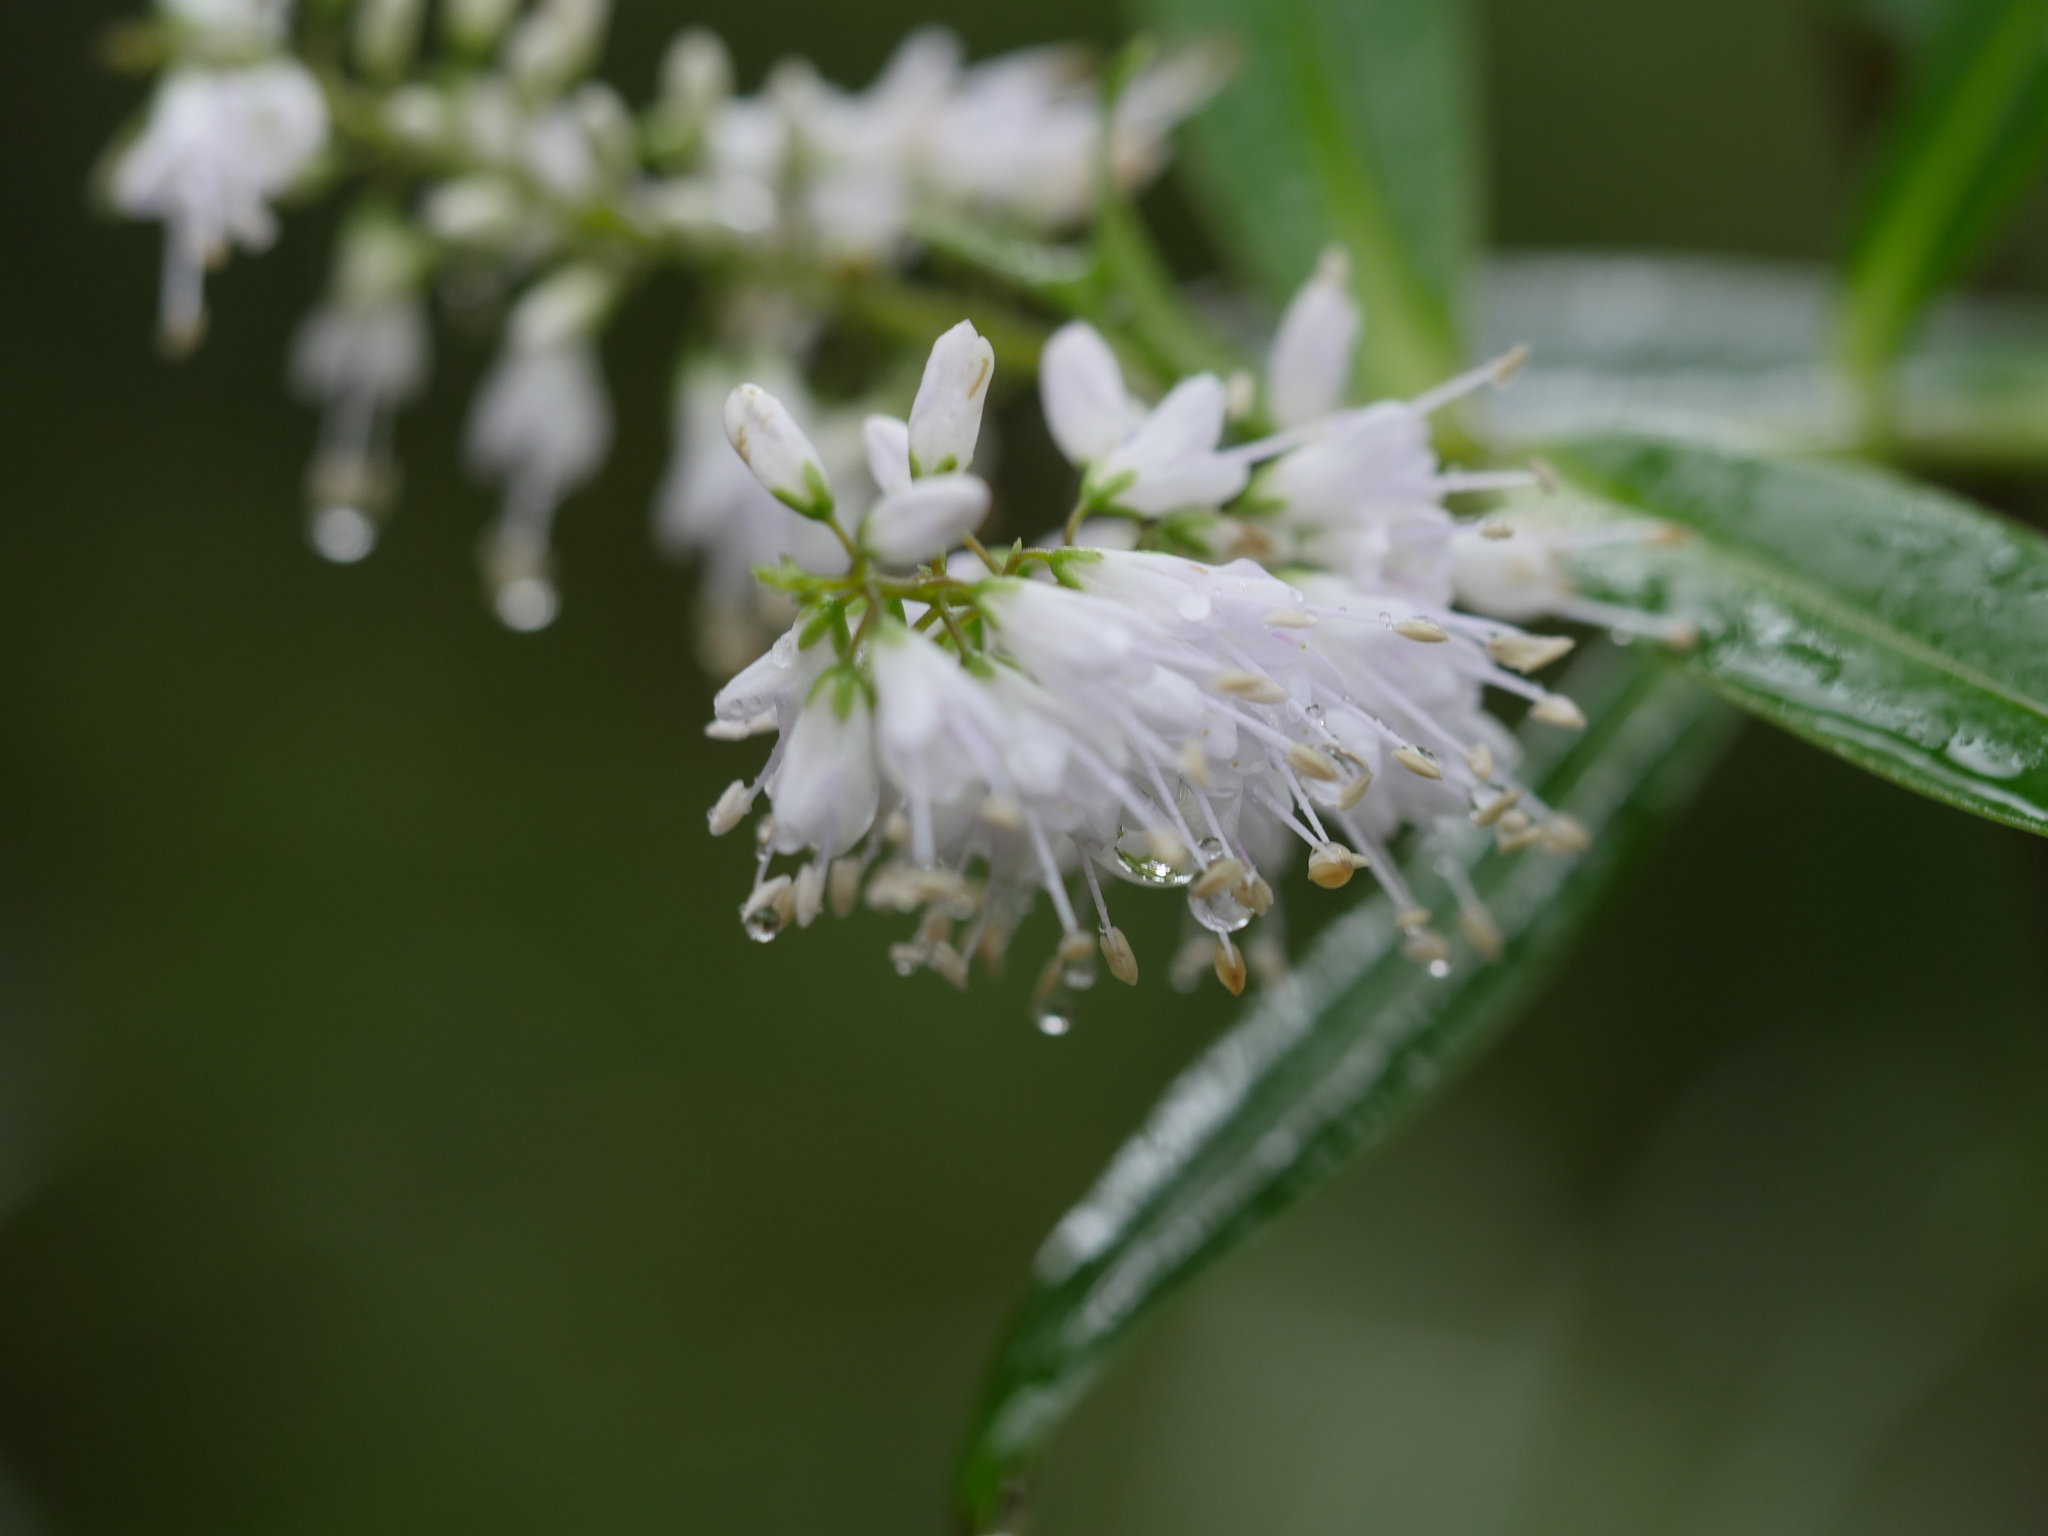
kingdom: Plantae
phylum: Tracheophyta
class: Magnoliopsida
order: Lamiales
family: Plantaginaceae
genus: Veronica
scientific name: Veronica stricta
